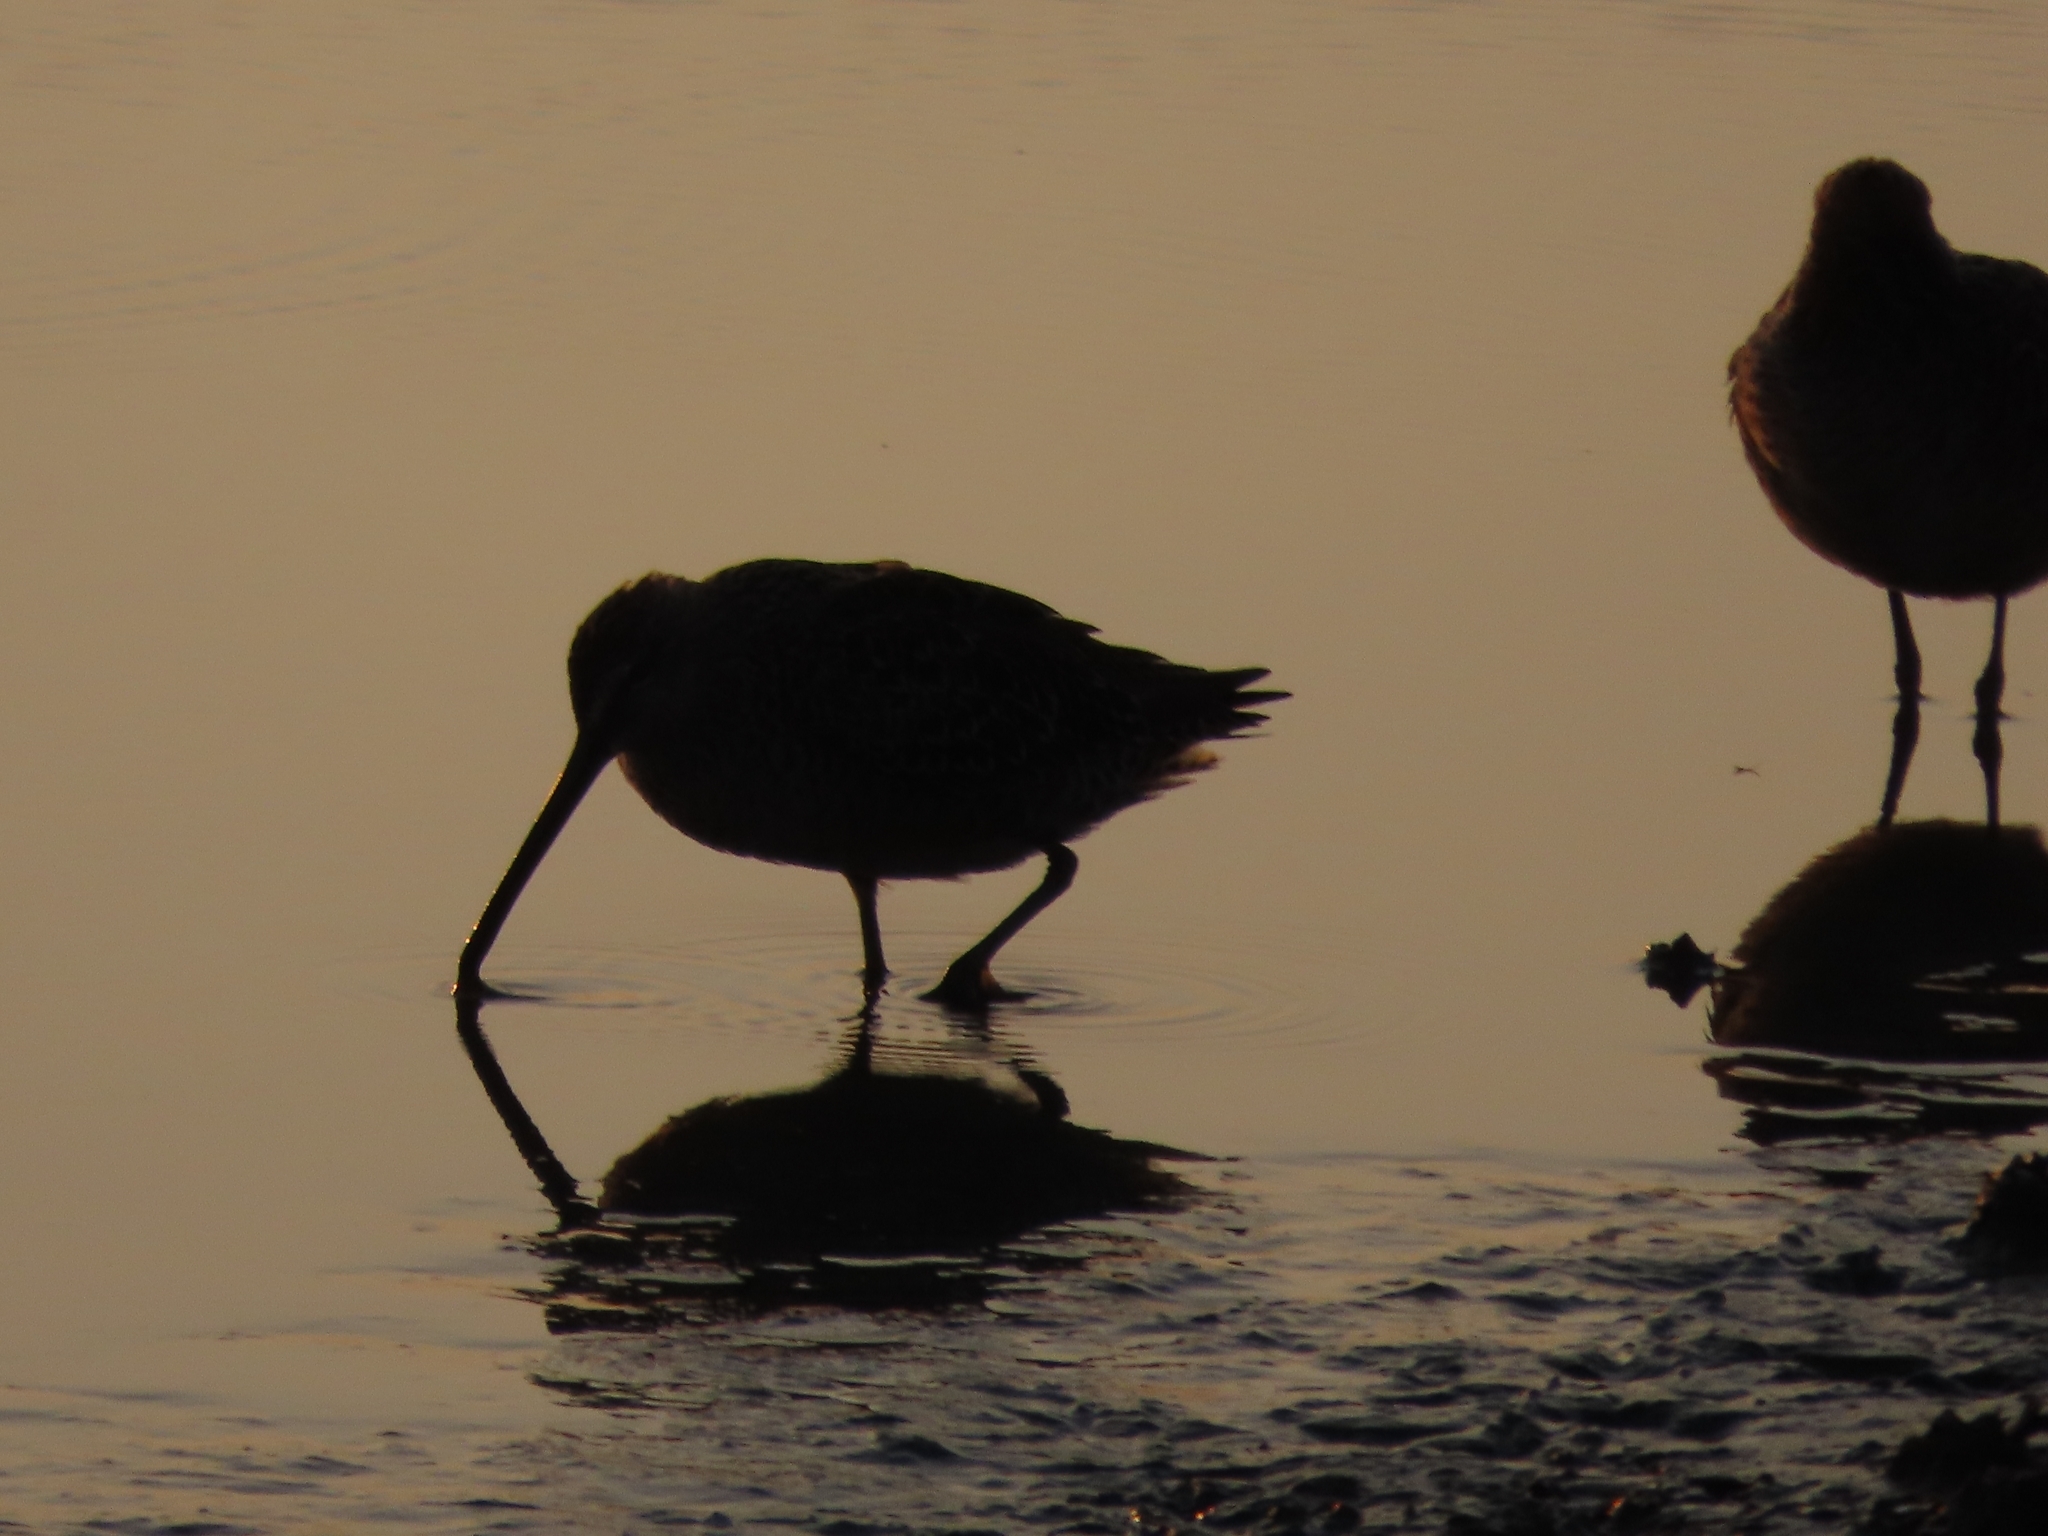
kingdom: Animalia
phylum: Chordata
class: Aves
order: Charadriiformes
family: Scolopacidae
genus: Limnodromus
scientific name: Limnodromus
